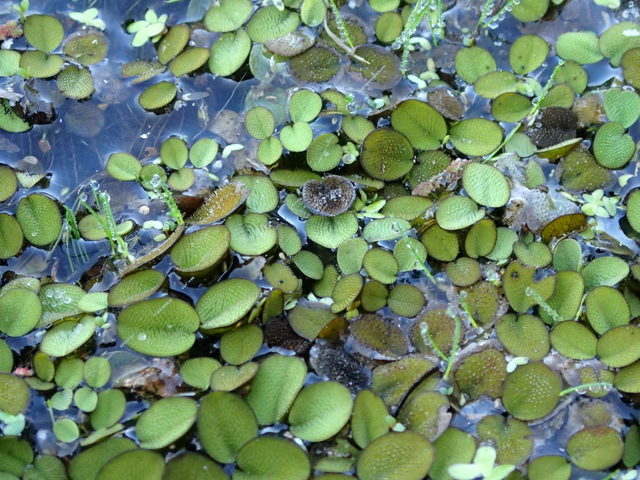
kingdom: Plantae
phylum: Tracheophyta
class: Polypodiopsida
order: Salviniales
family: Salviniaceae
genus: Salvinia
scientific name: Salvinia minima
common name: Water spangles
